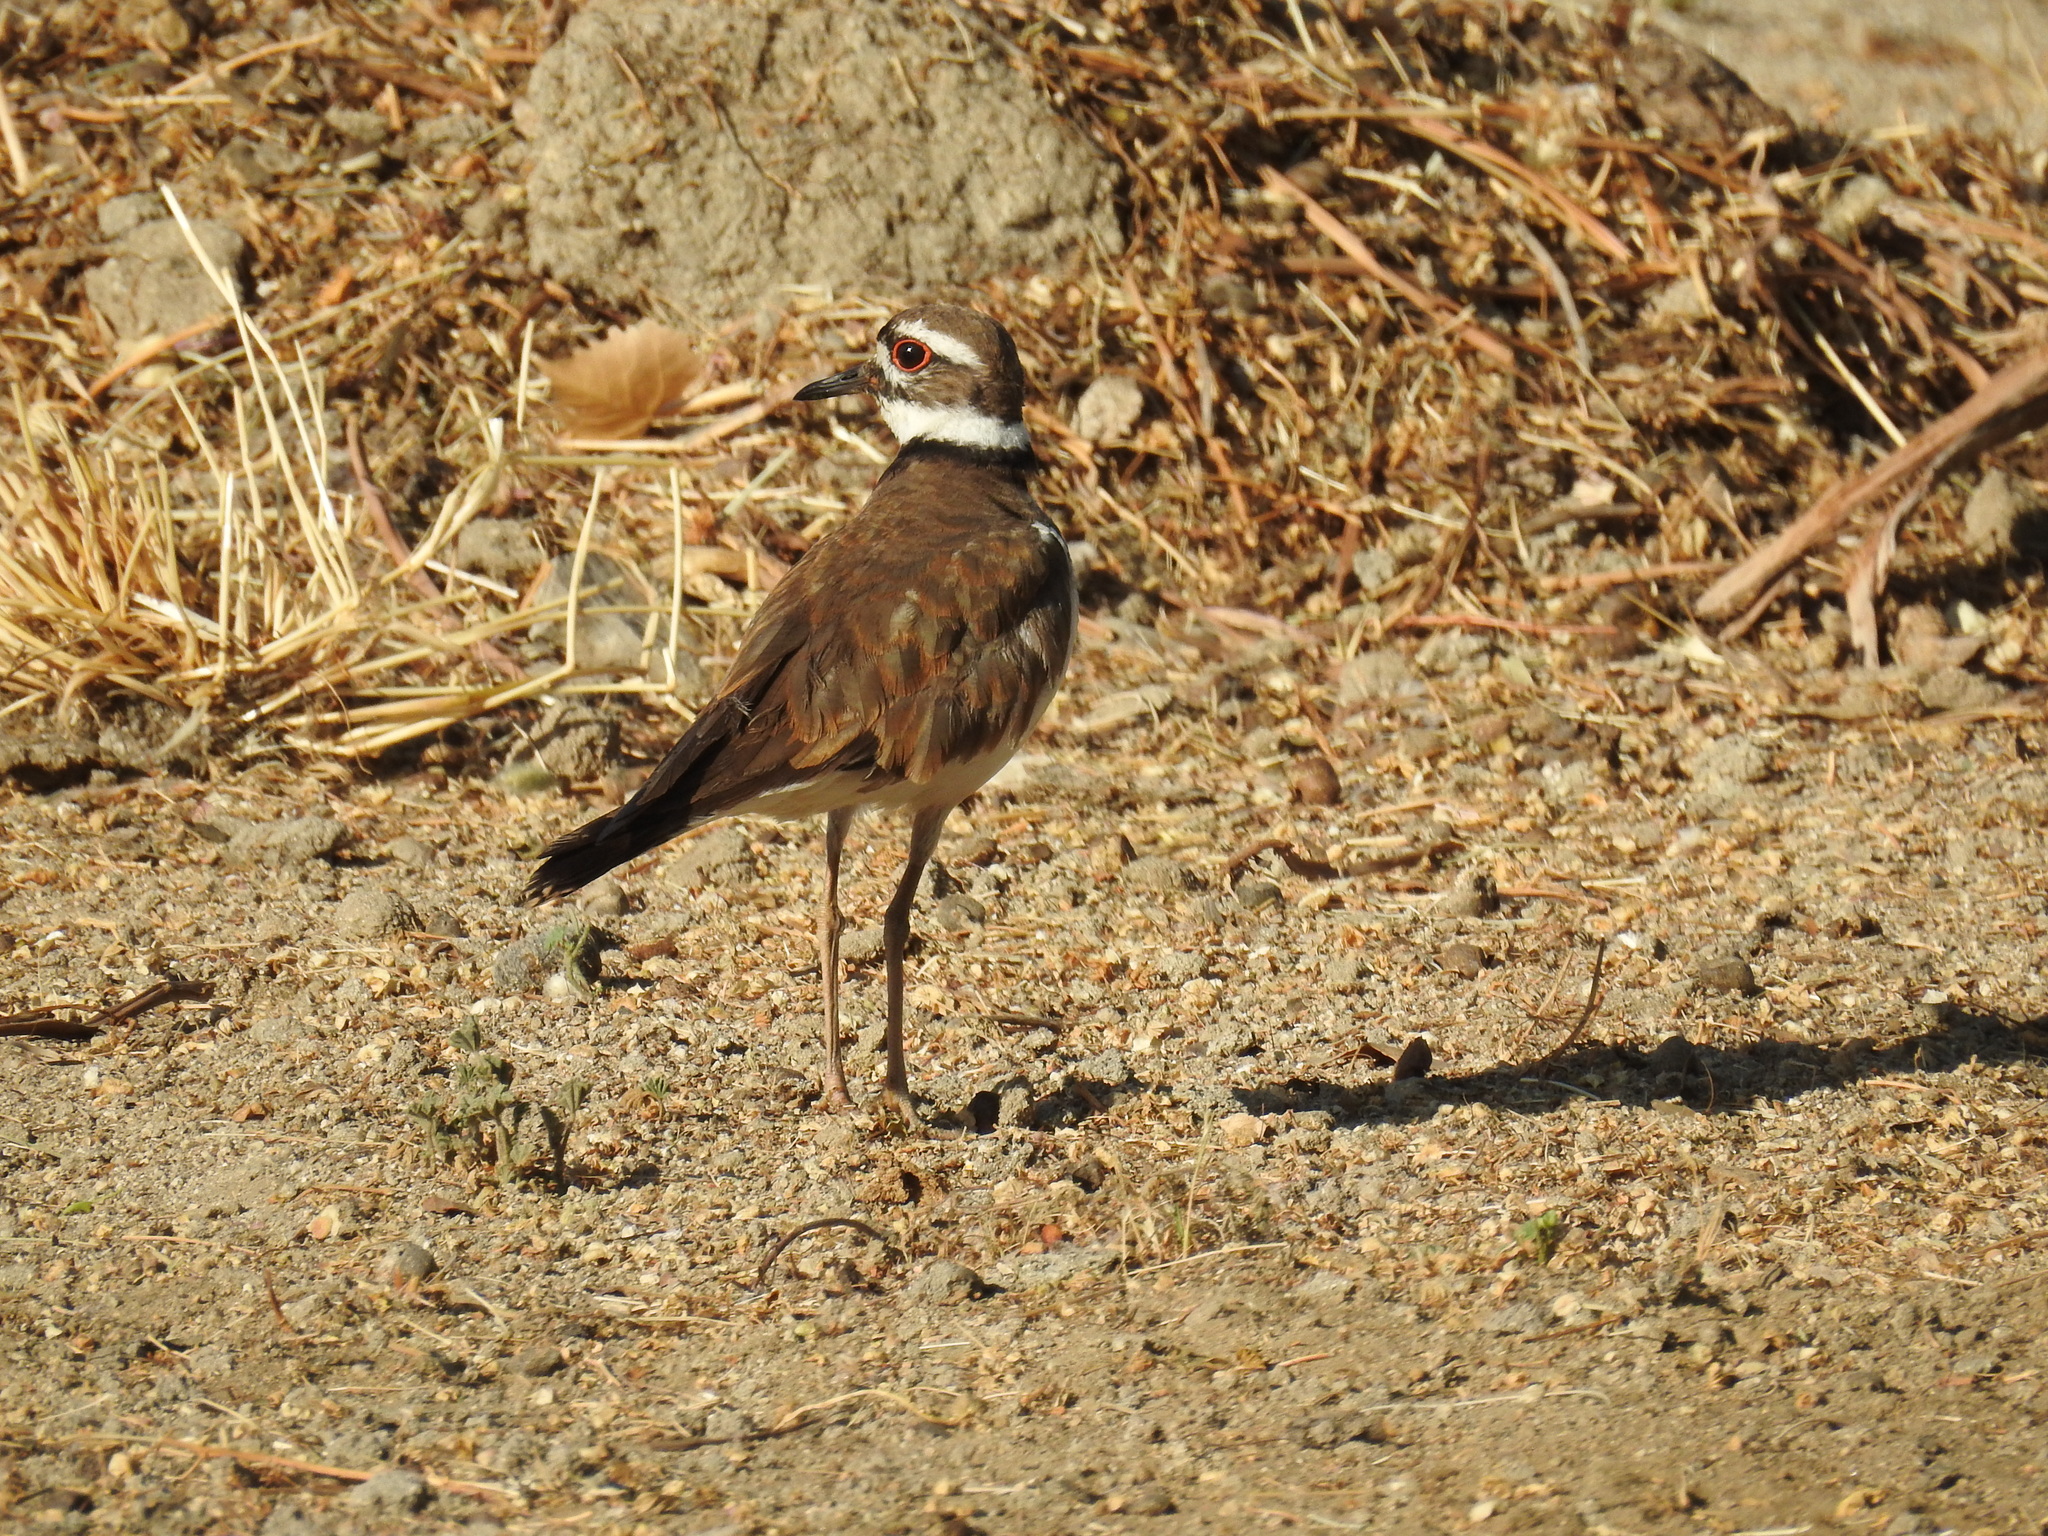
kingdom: Animalia
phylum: Chordata
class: Aves
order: Charadriiformes
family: Charadriidae
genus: Charadrius
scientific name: Charadrius vociferus
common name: Killdeer
